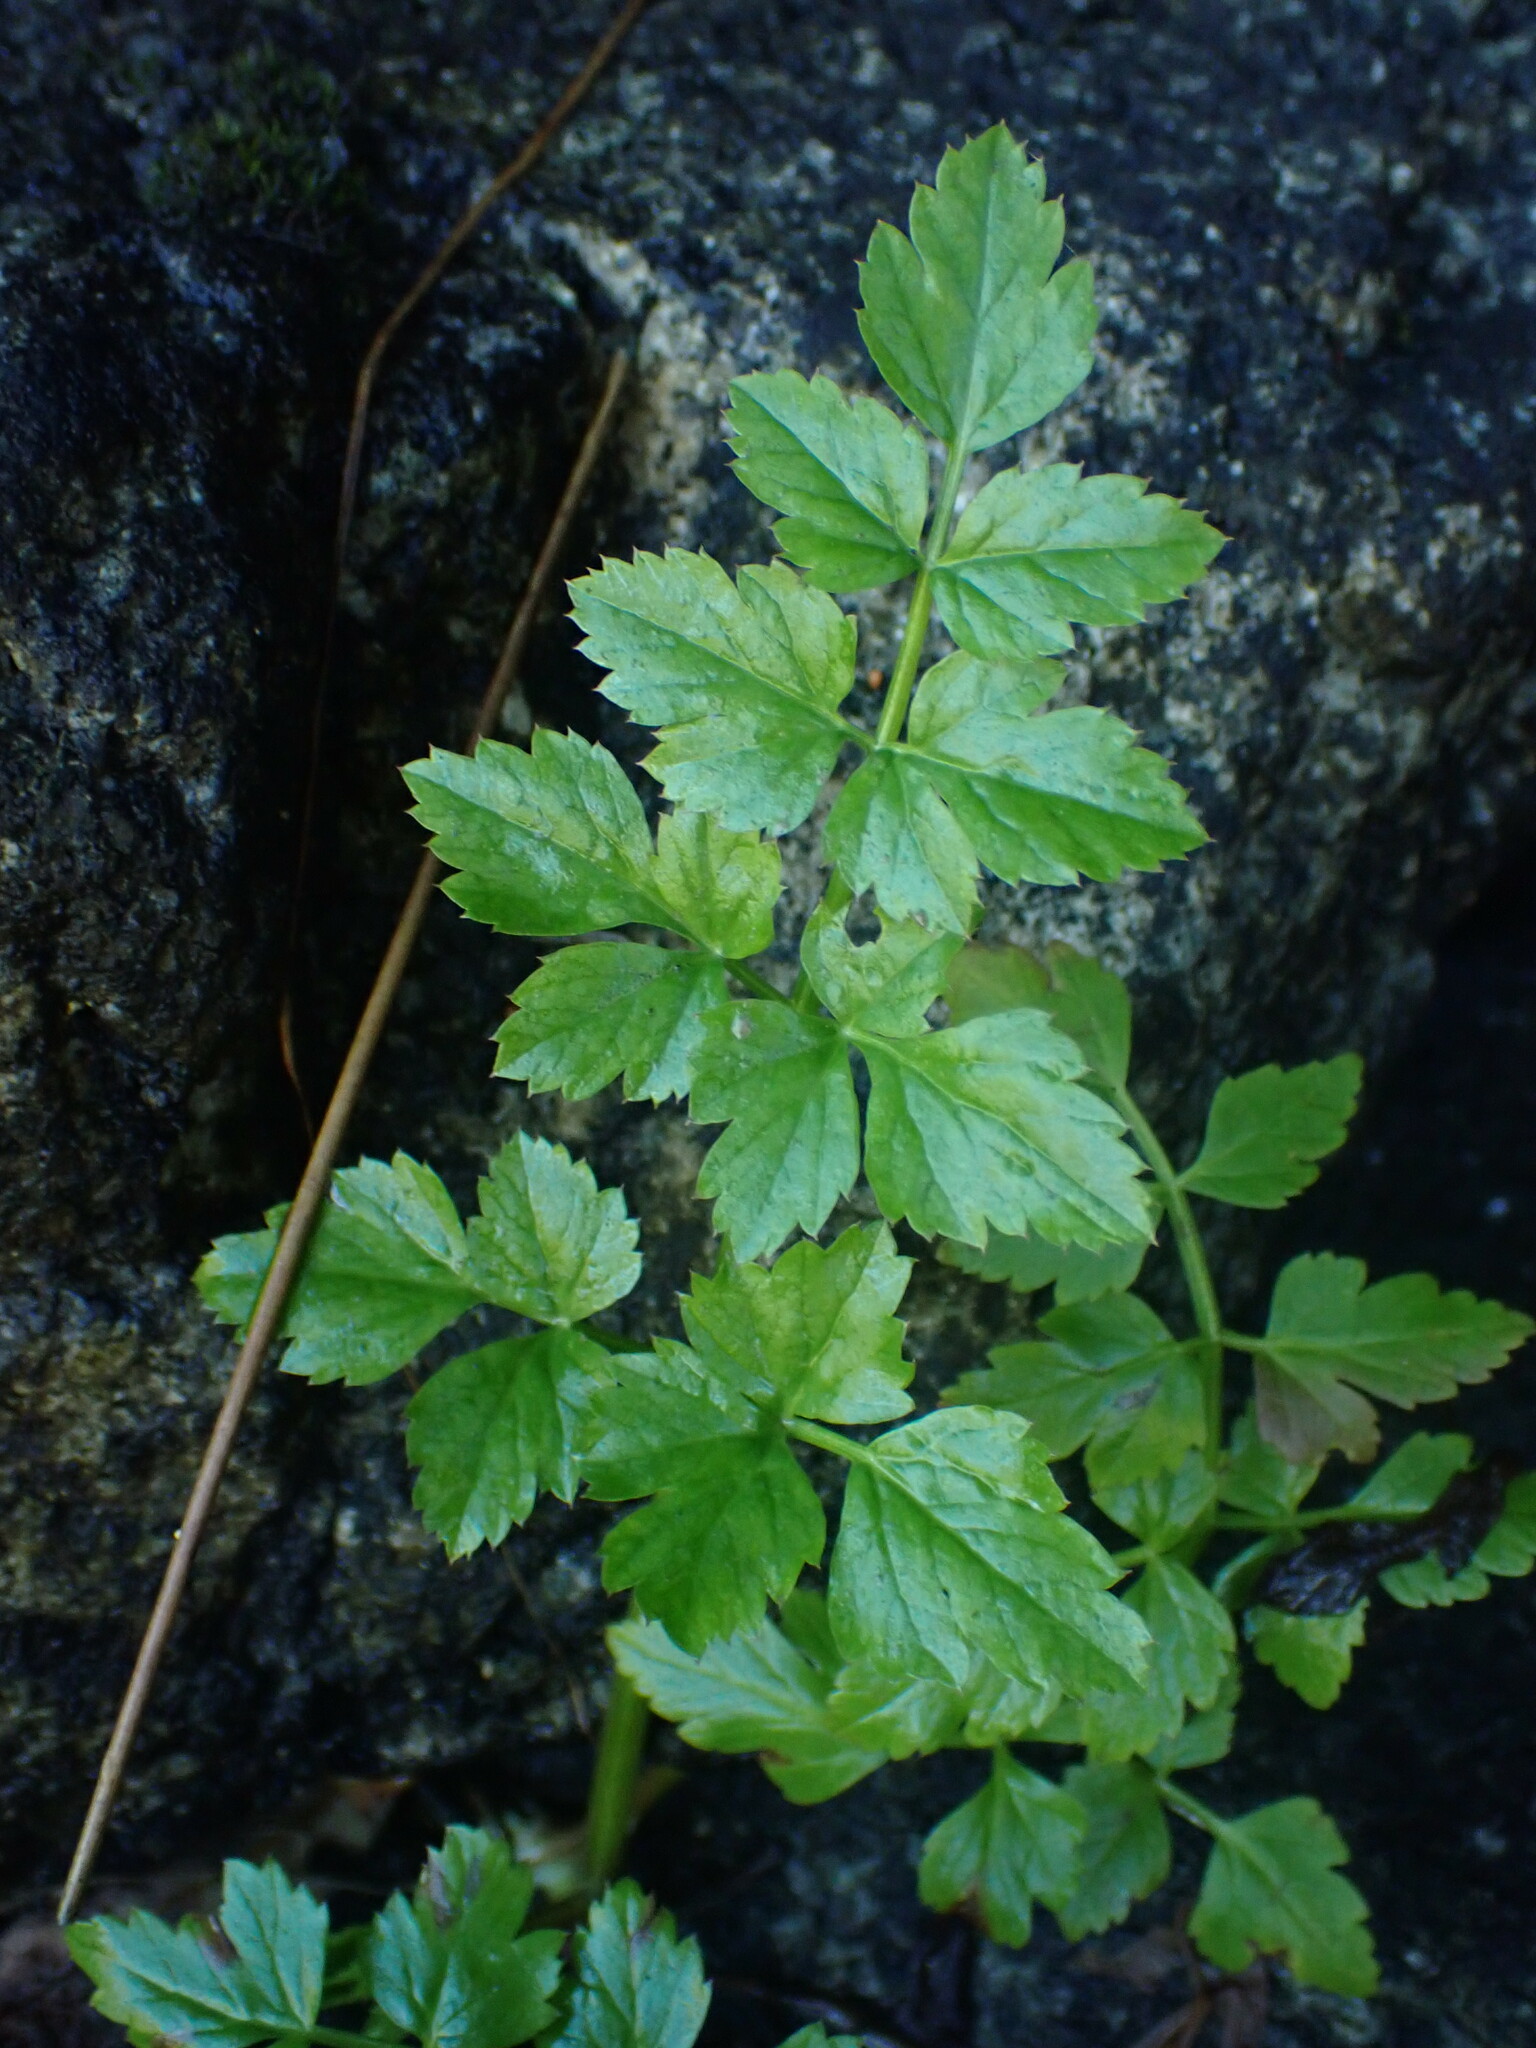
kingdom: Plantae
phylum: Tracheophyta
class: Magnoliopsida
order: Apiales
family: Apiaceae
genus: Oenanthe
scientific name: Oenanthe sarmentosa
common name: American water-parsley
